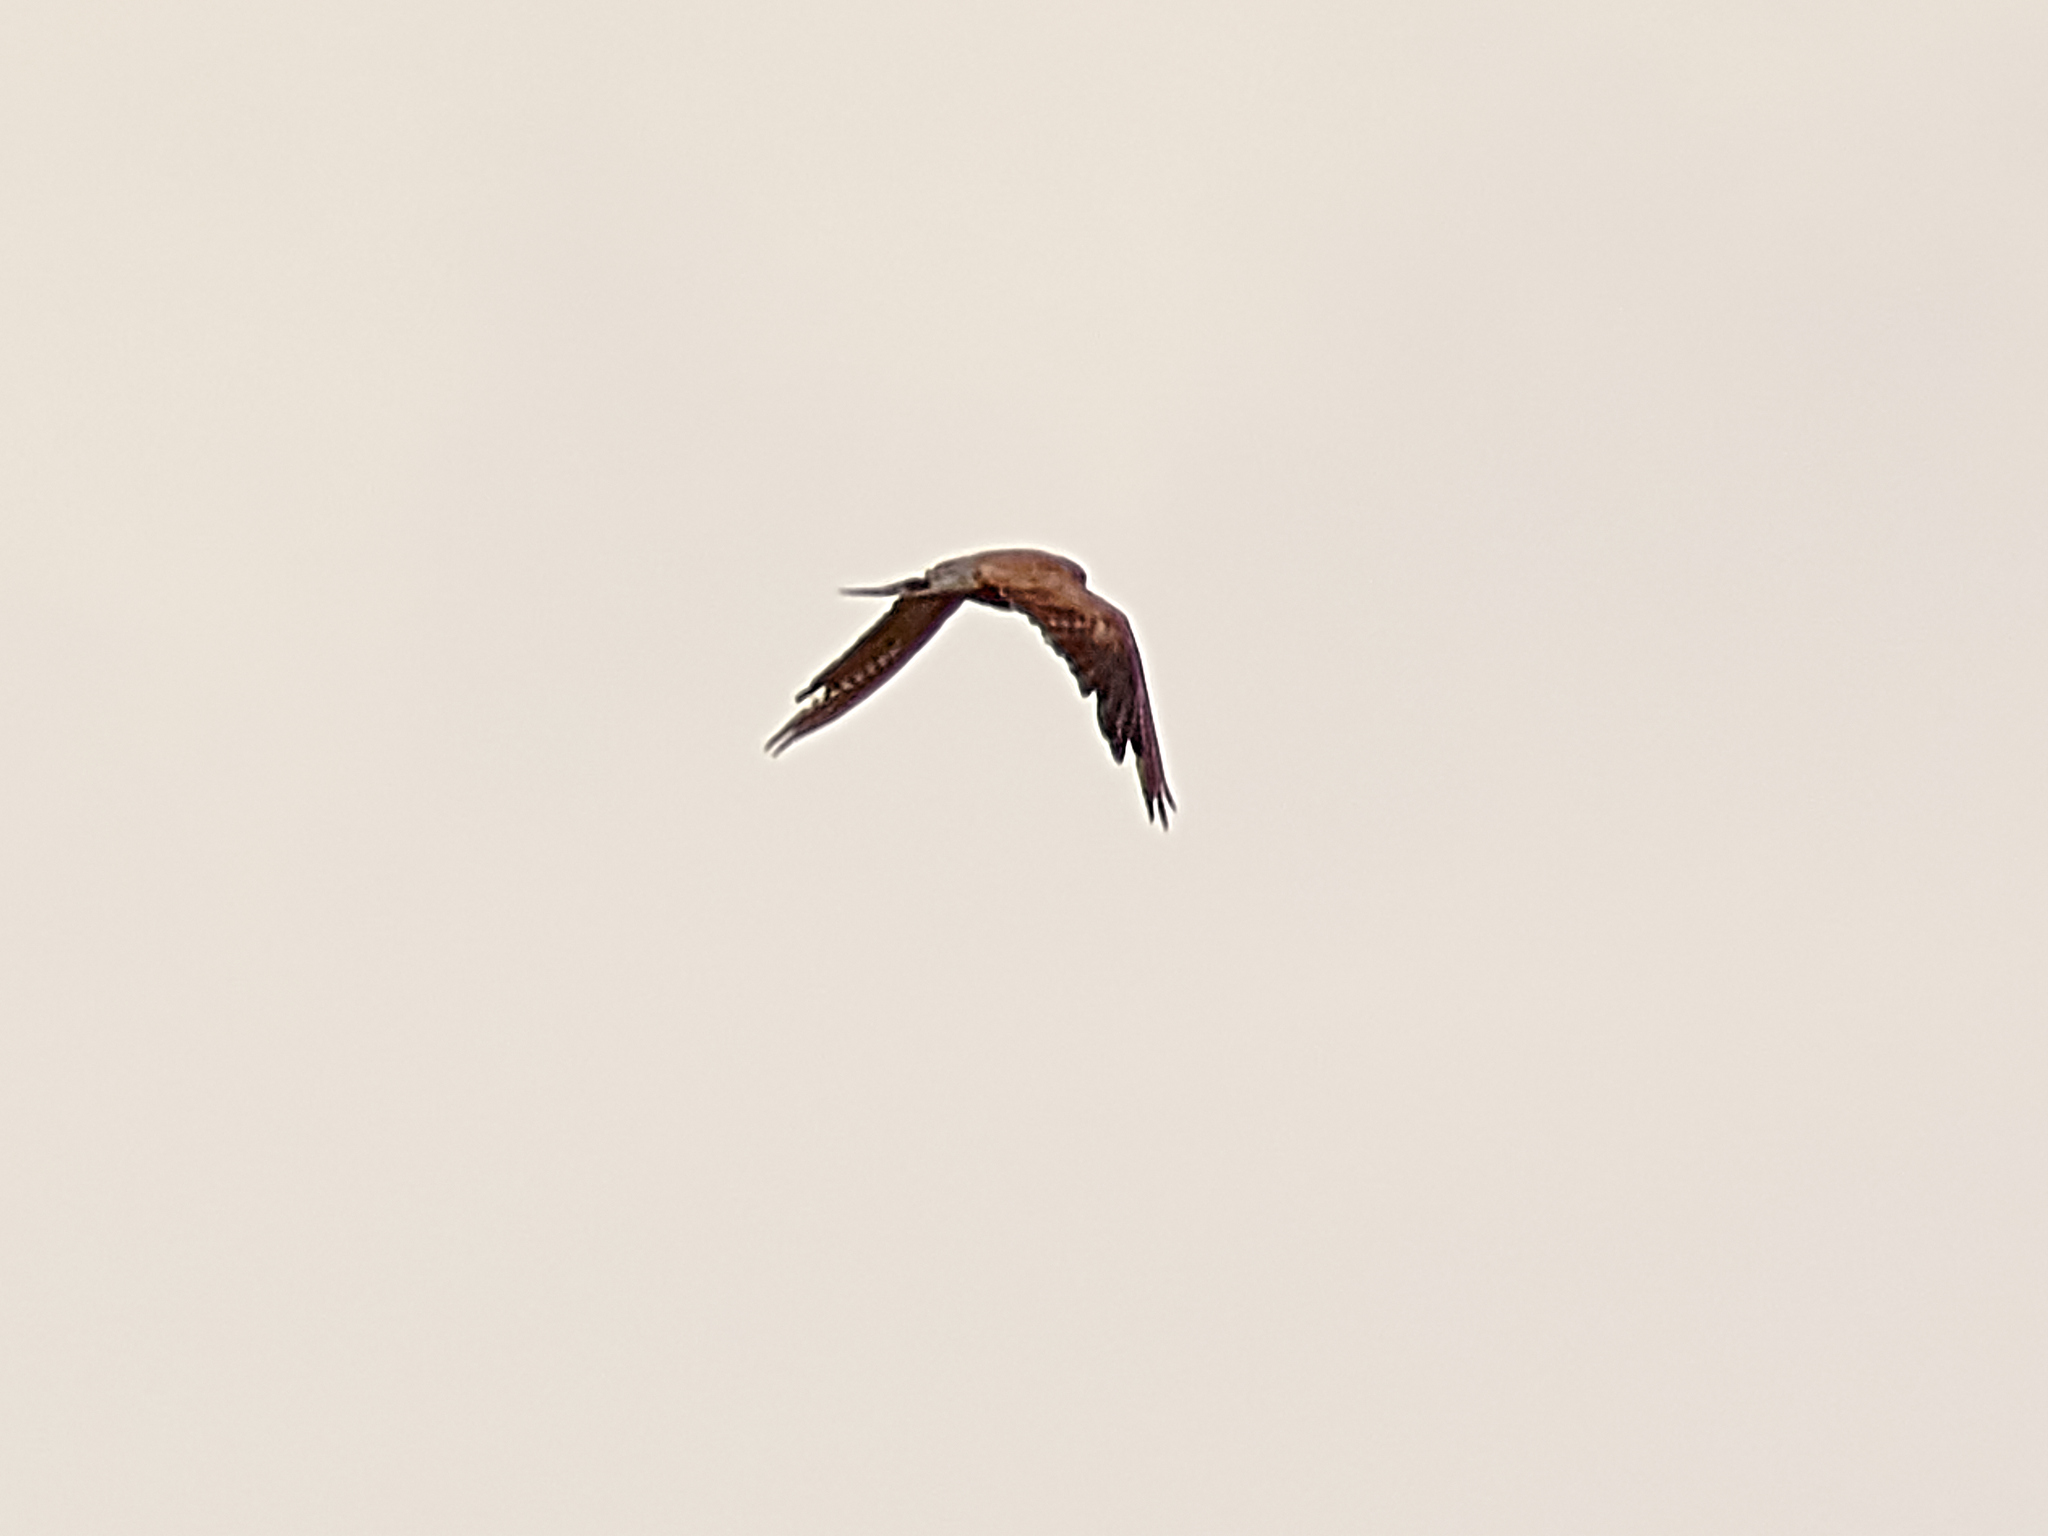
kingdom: Animalia
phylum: Chordata
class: Aves
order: Falconiformes
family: Falconidae
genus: Falco
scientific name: Falco tinnunculus
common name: Common kestrel
